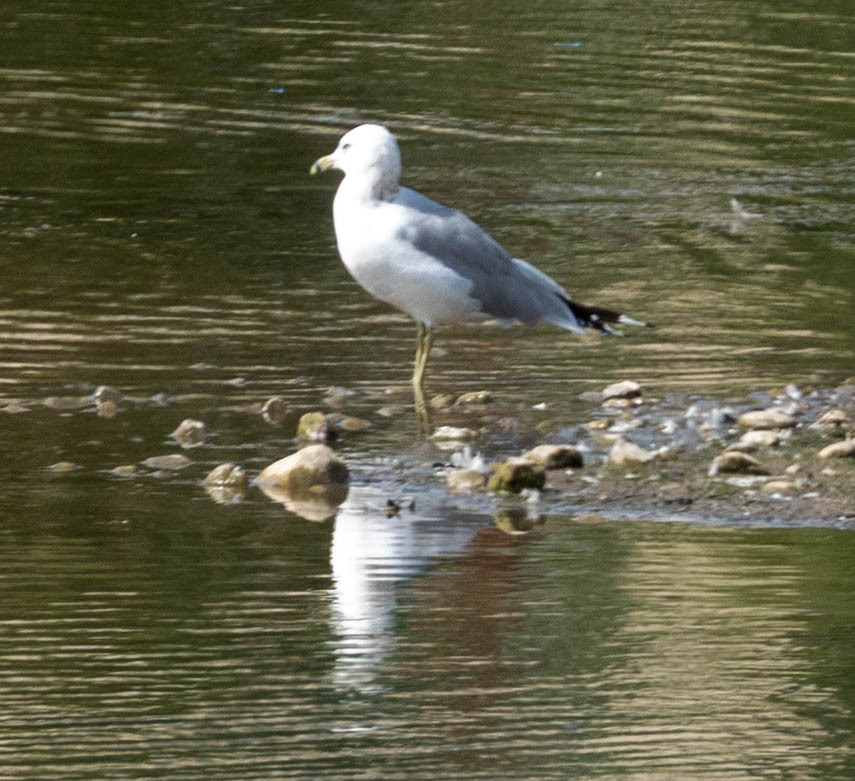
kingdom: Animalia
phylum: Chordata
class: Aves
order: Charadriiformes
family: Laridae
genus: Larus
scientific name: Larus delawarensis
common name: Ring-billed gull
